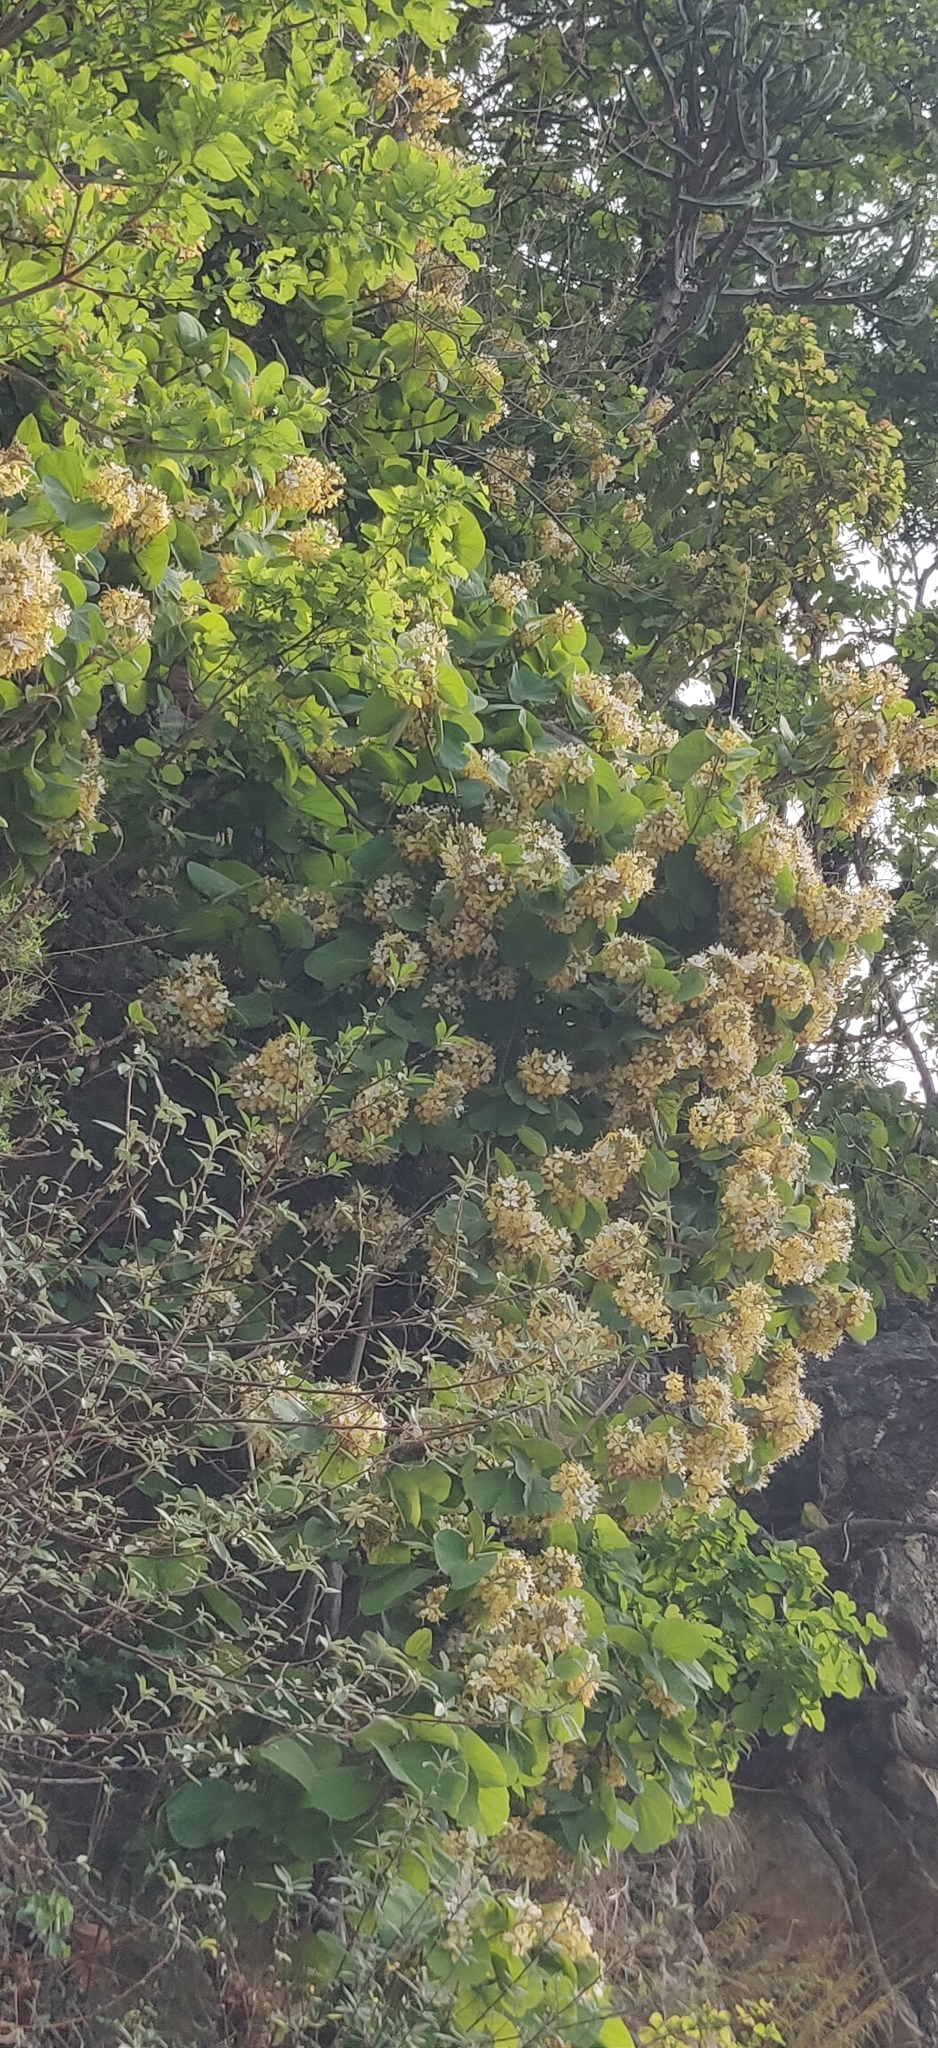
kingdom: Plantae
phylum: Tracheophyta
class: Magnoliopsida
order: Fabales
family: Fabaceae
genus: Phanera
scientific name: Phanera vahlii
